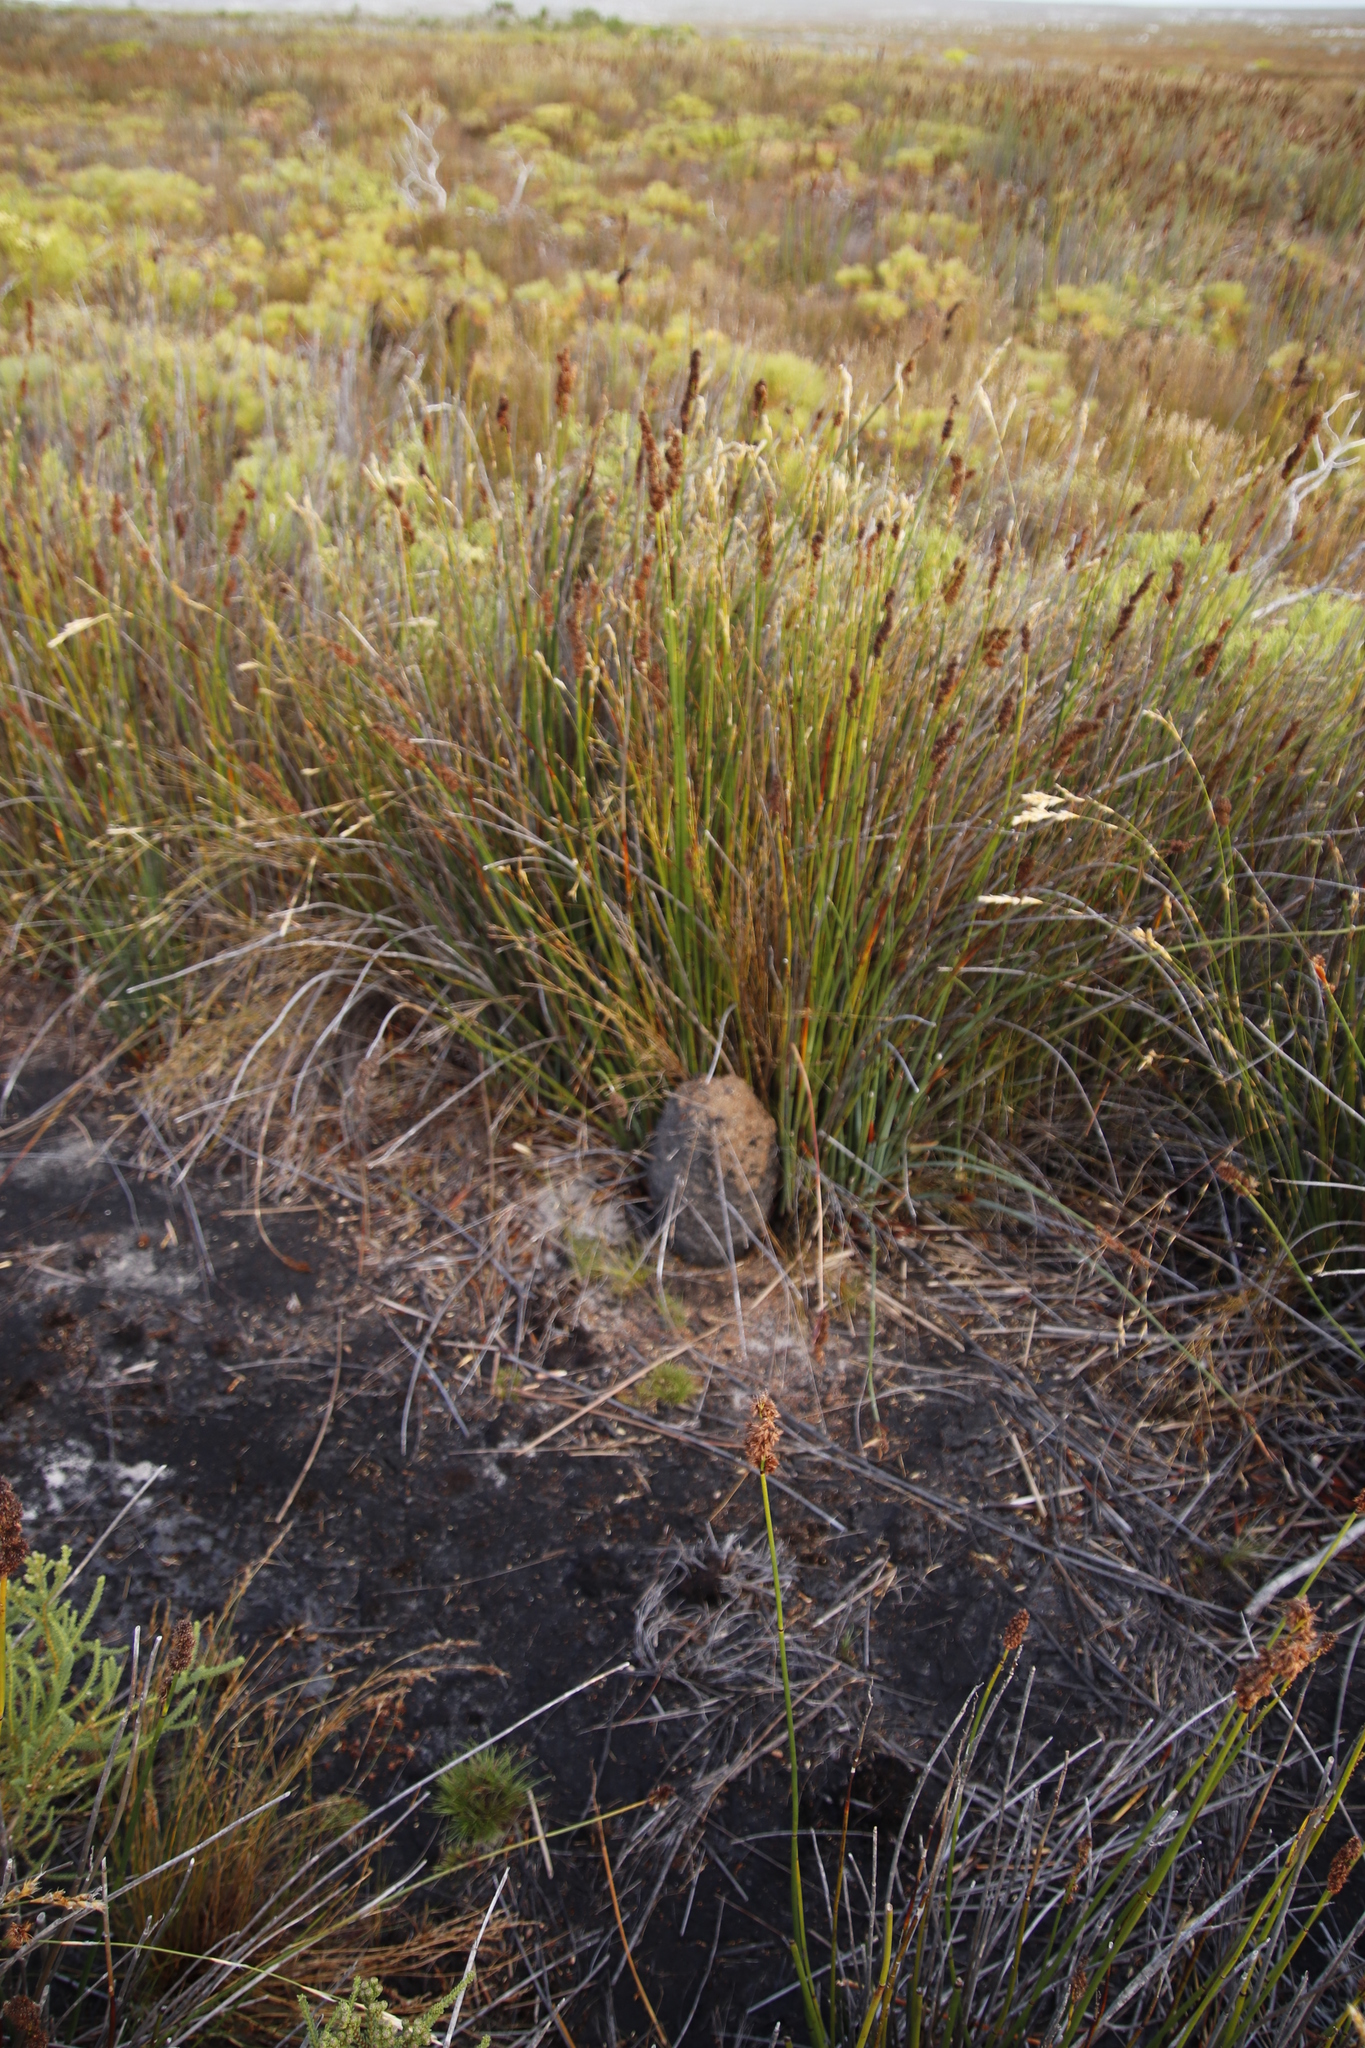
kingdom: Plantae
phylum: Tracheophyta
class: Liliopsida
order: Poales
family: Restionaceae
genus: Elegia
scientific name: Elegia cuspidata
